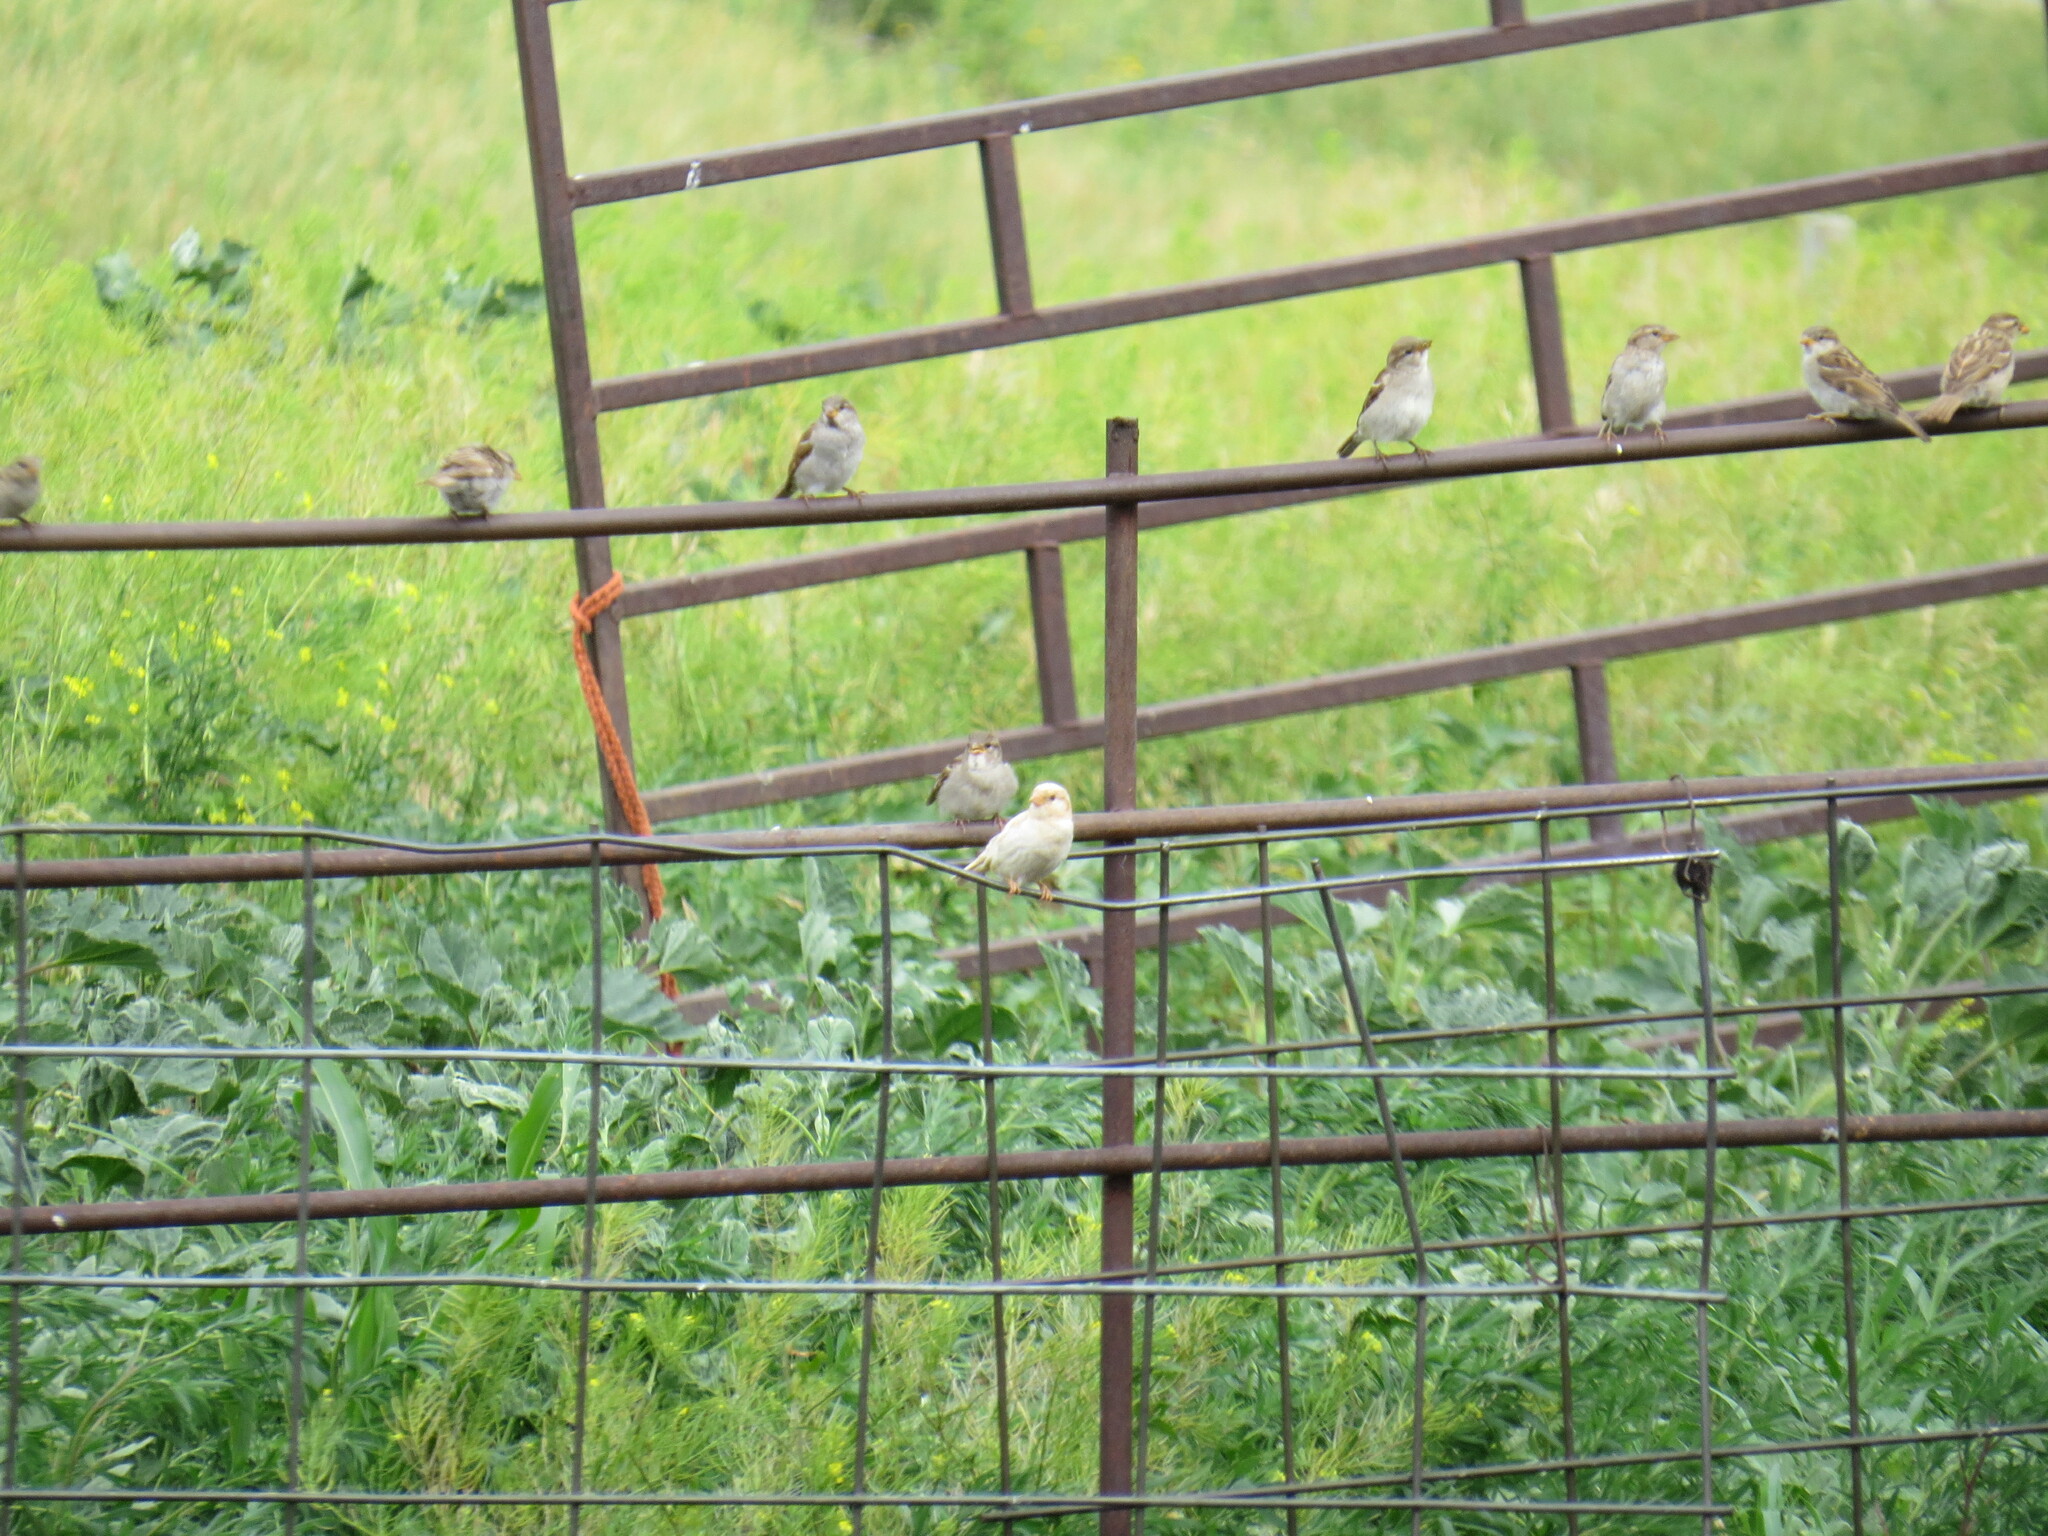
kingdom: Animalia
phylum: Chordata
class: Aves
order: Passeriformes
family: Passeridae
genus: Passer
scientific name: Passer domesticus
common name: House sparrow
